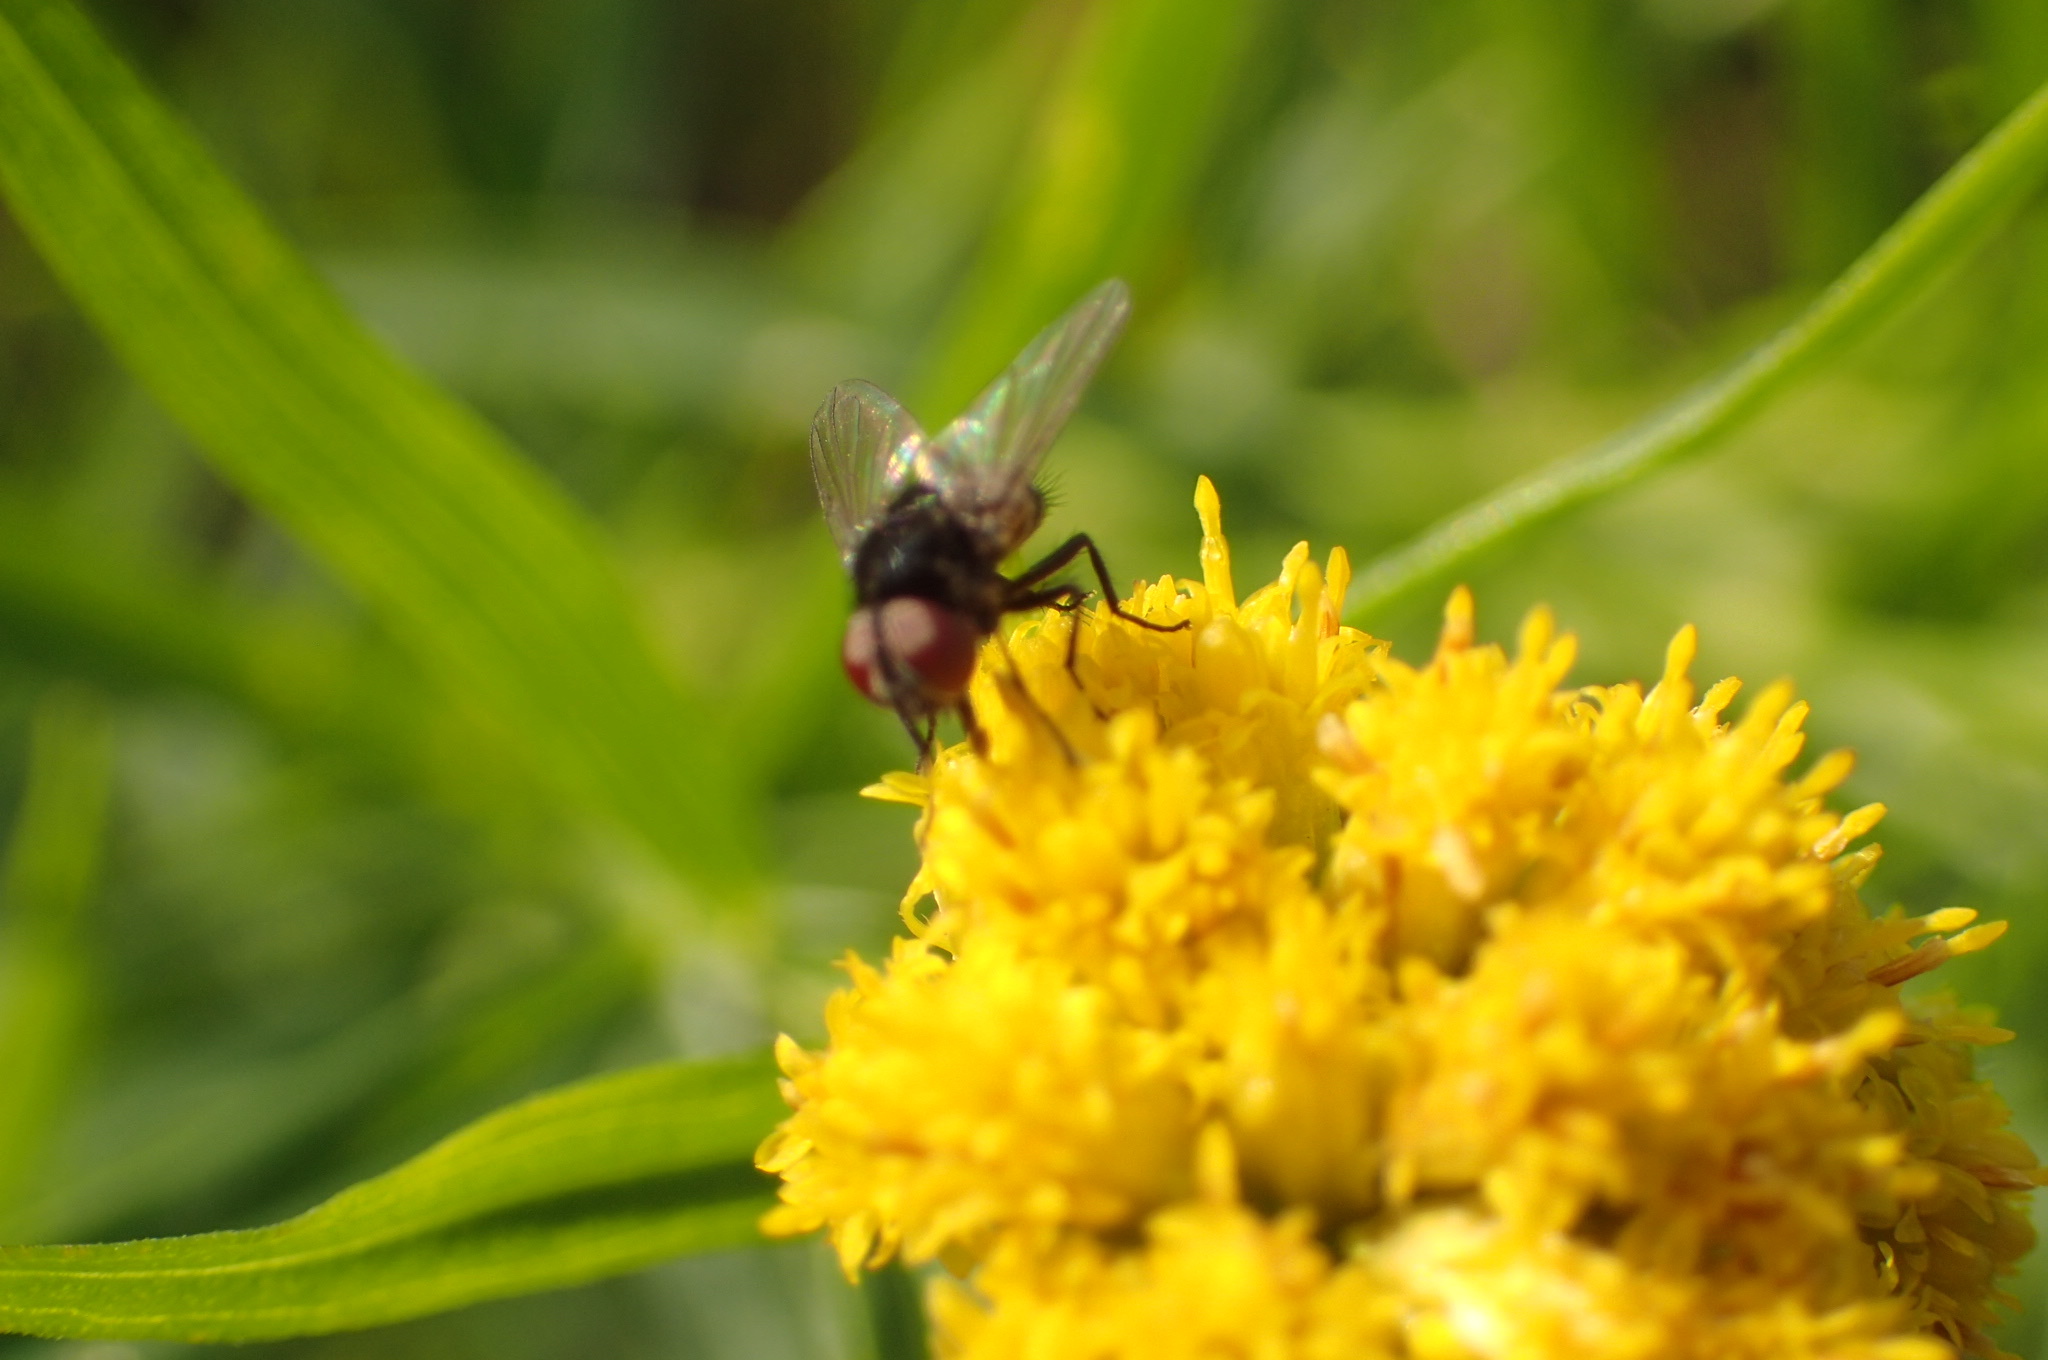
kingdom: Animalia
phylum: Arthropoda
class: Insecta
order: Diptera
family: Tachinidae
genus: Strongygaster
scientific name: Strongygaster triangulifera
